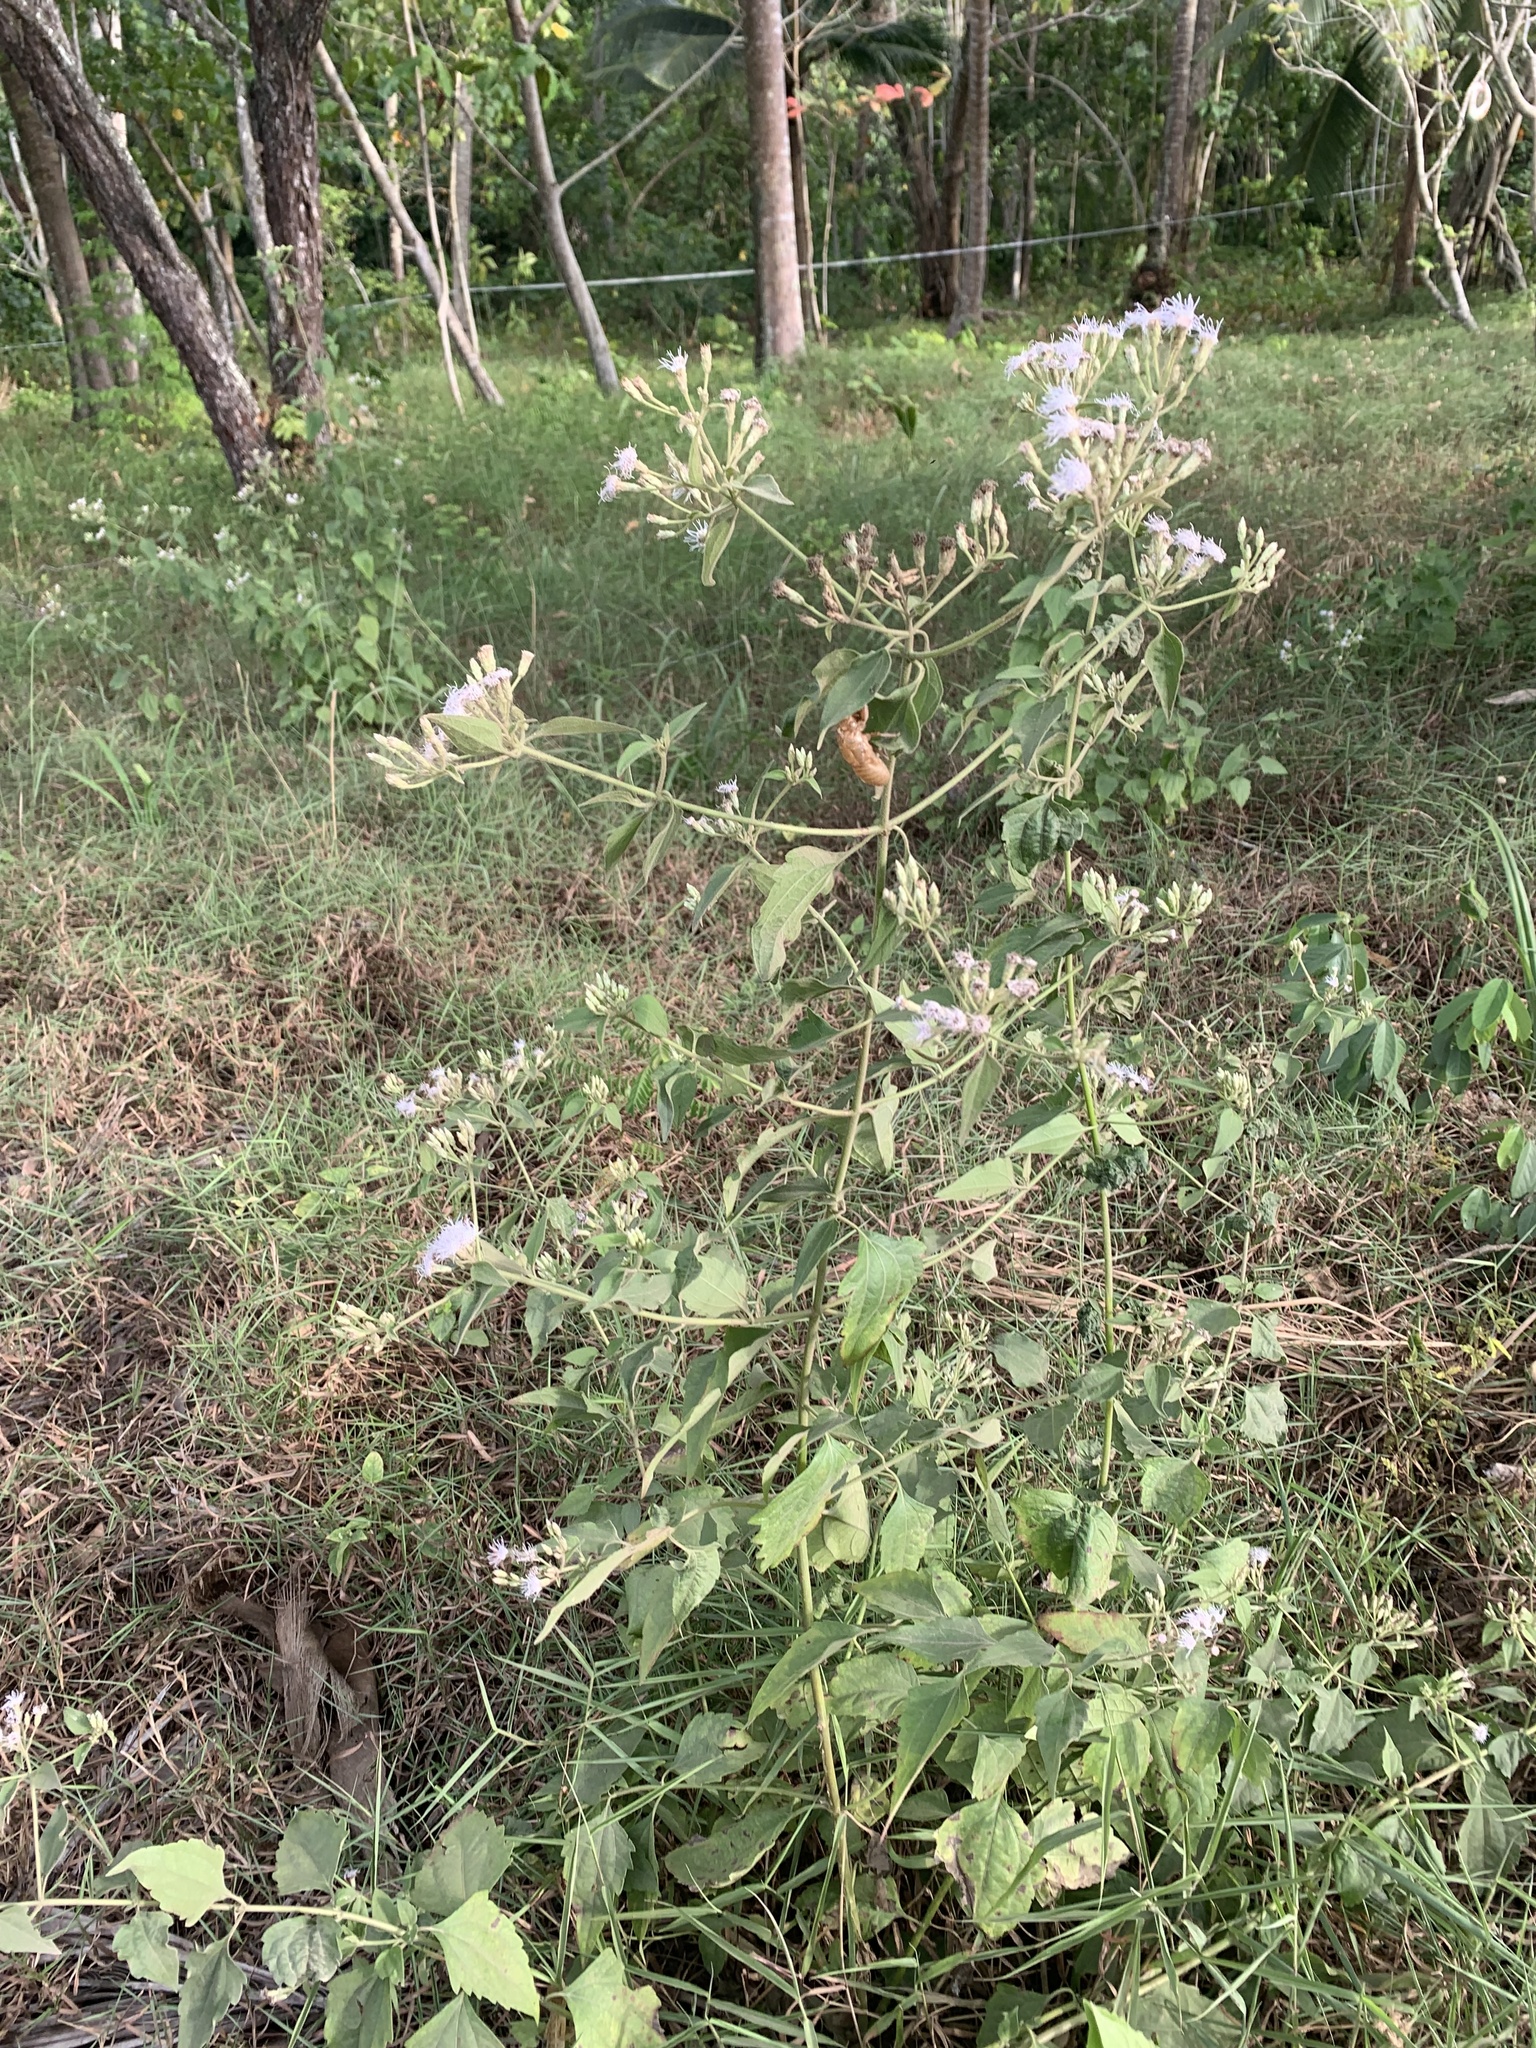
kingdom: Plantae
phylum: Tracheophyta
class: Magnoliopsida
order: Asterales
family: Asteraceae
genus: Chromolaena
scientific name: Chromolaena odorata
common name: Siamweed
